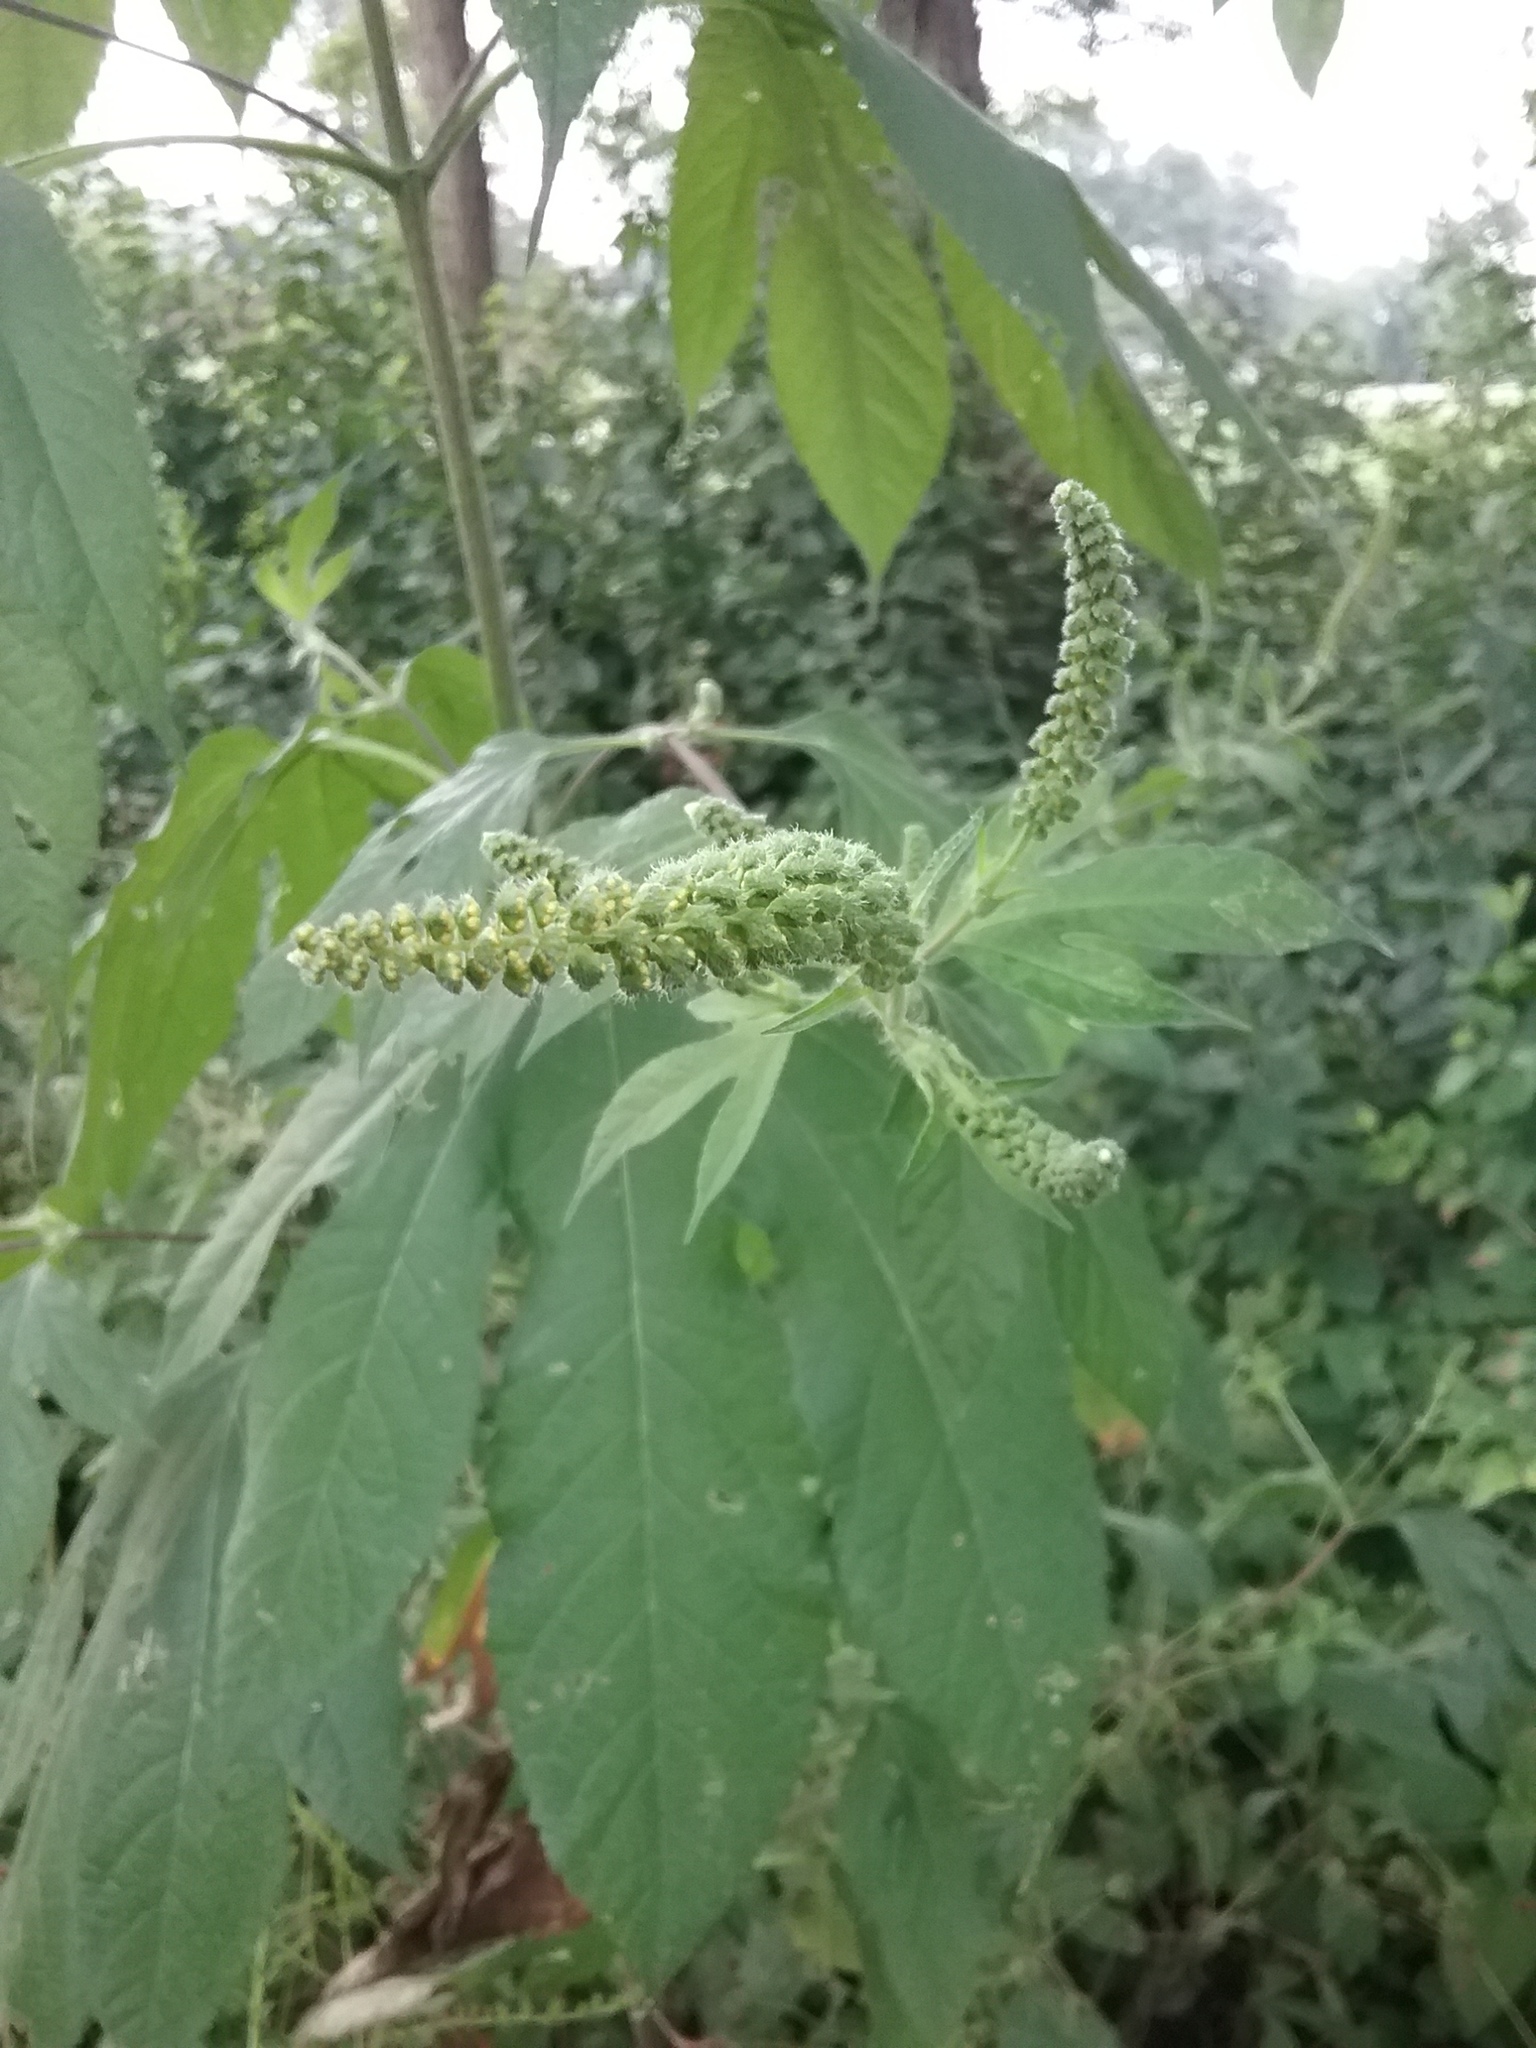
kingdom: Plantae
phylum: Tracheophyta
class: Magnoliopsida
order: Asterales
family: Asteraceae
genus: Ambrosia
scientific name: Ambrosia trifida
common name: Giant ragweed
